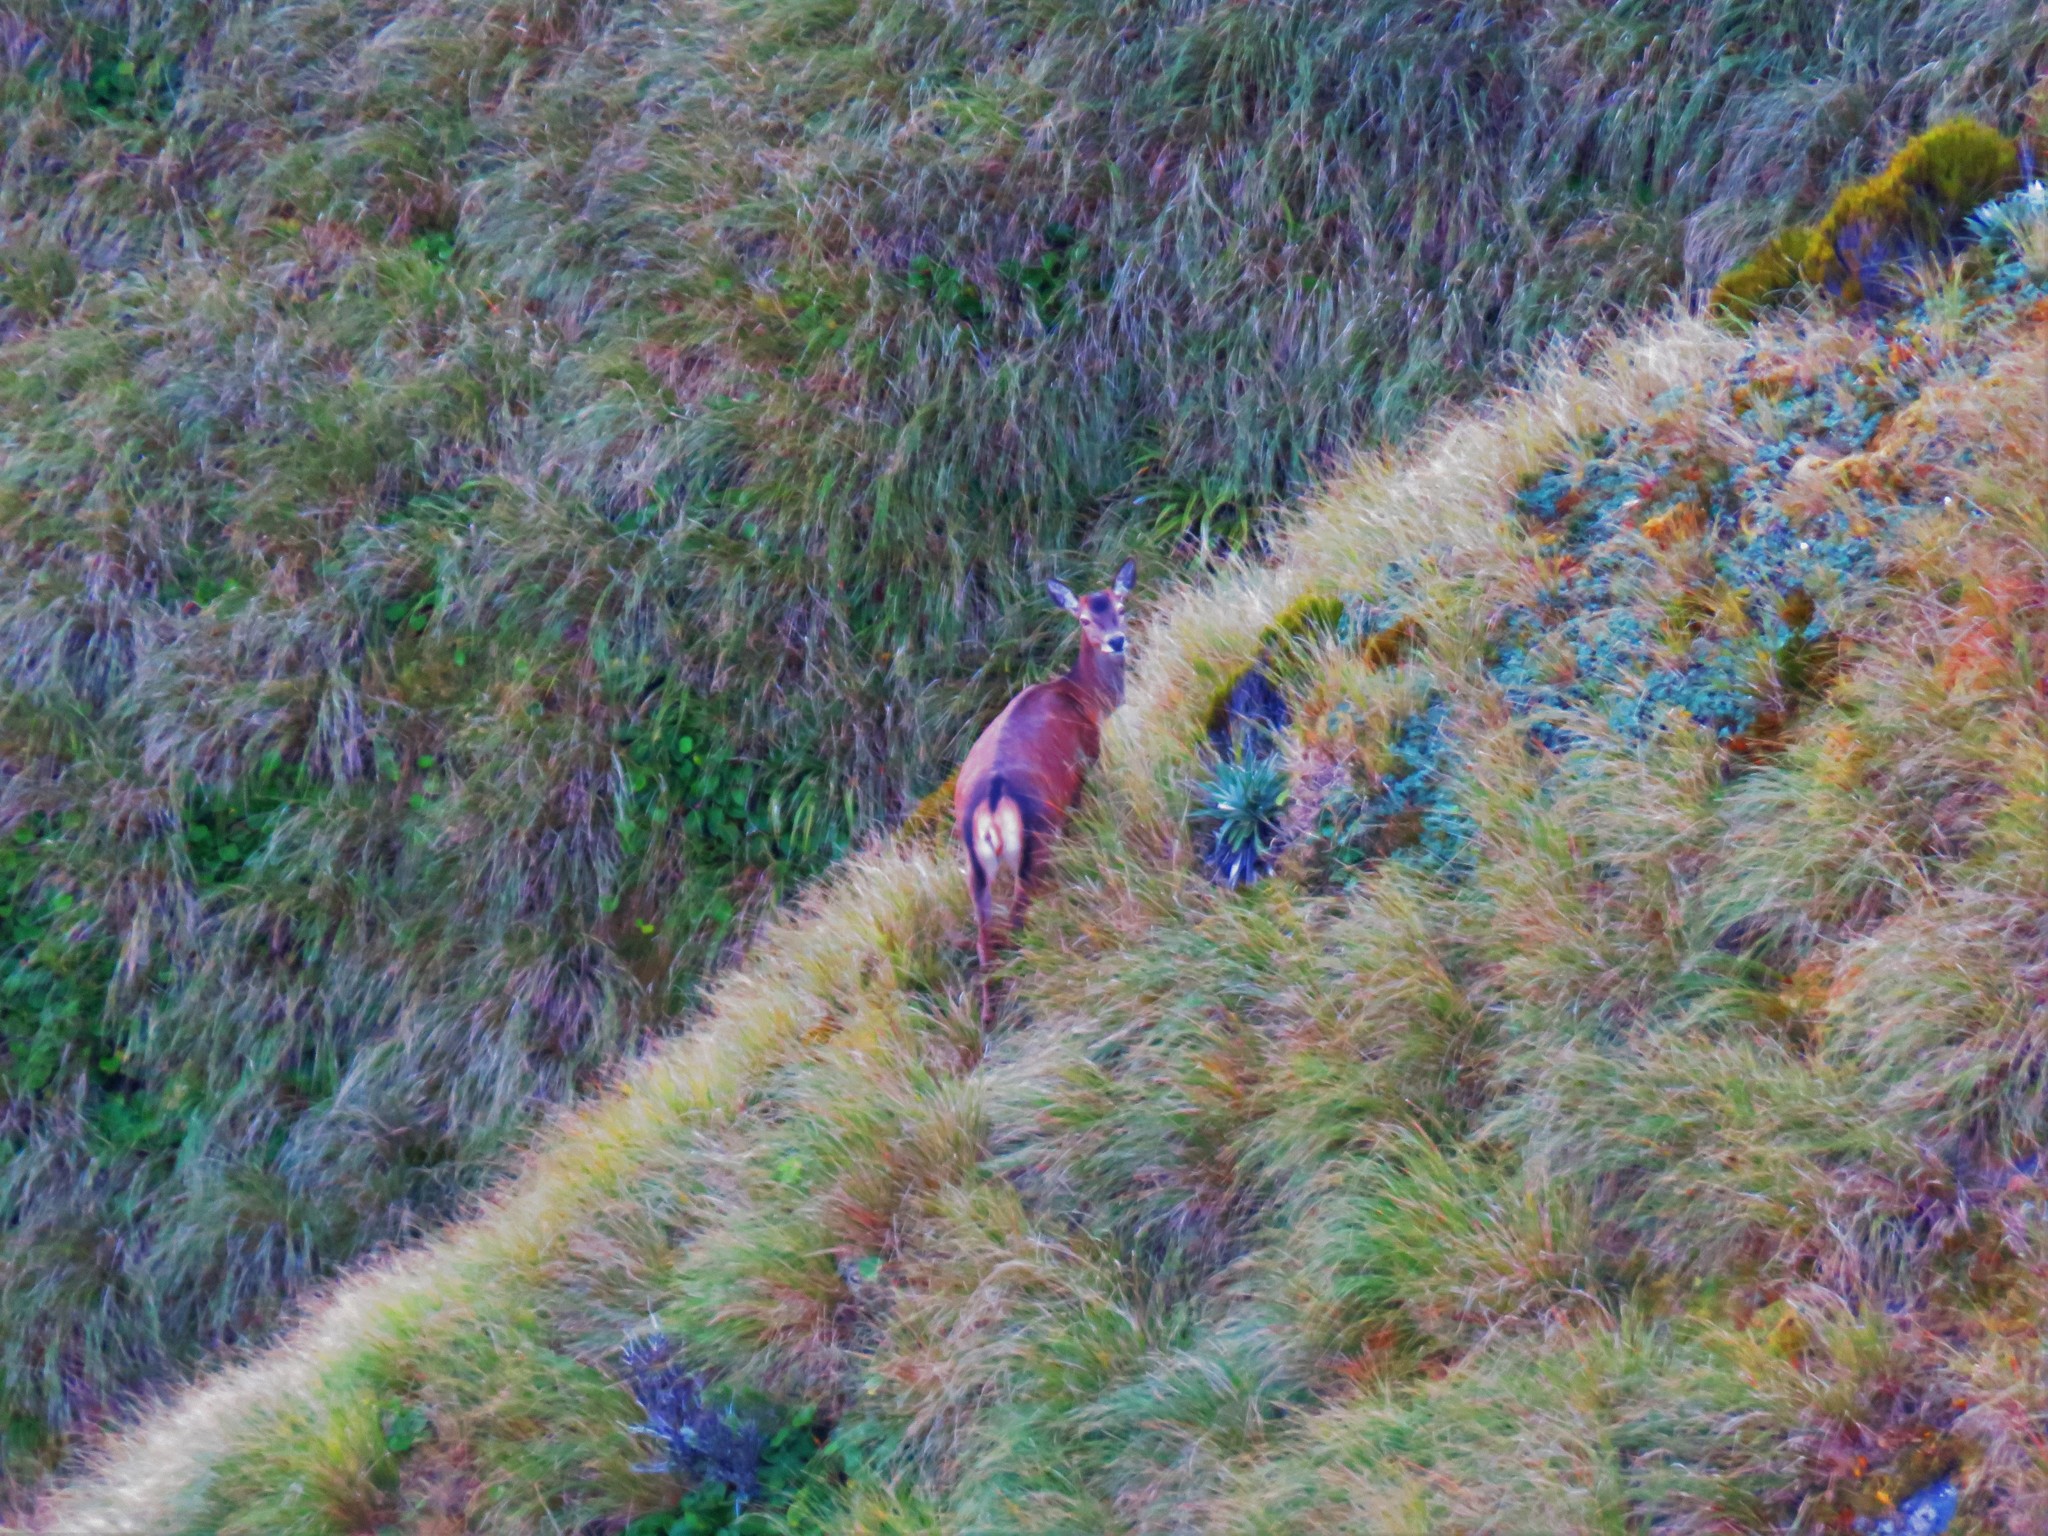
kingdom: Animalia
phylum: Chordata
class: Mammalia
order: Artiodactyla
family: Cervidae
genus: Cervus
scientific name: Cervus elaphus
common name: Red deer
